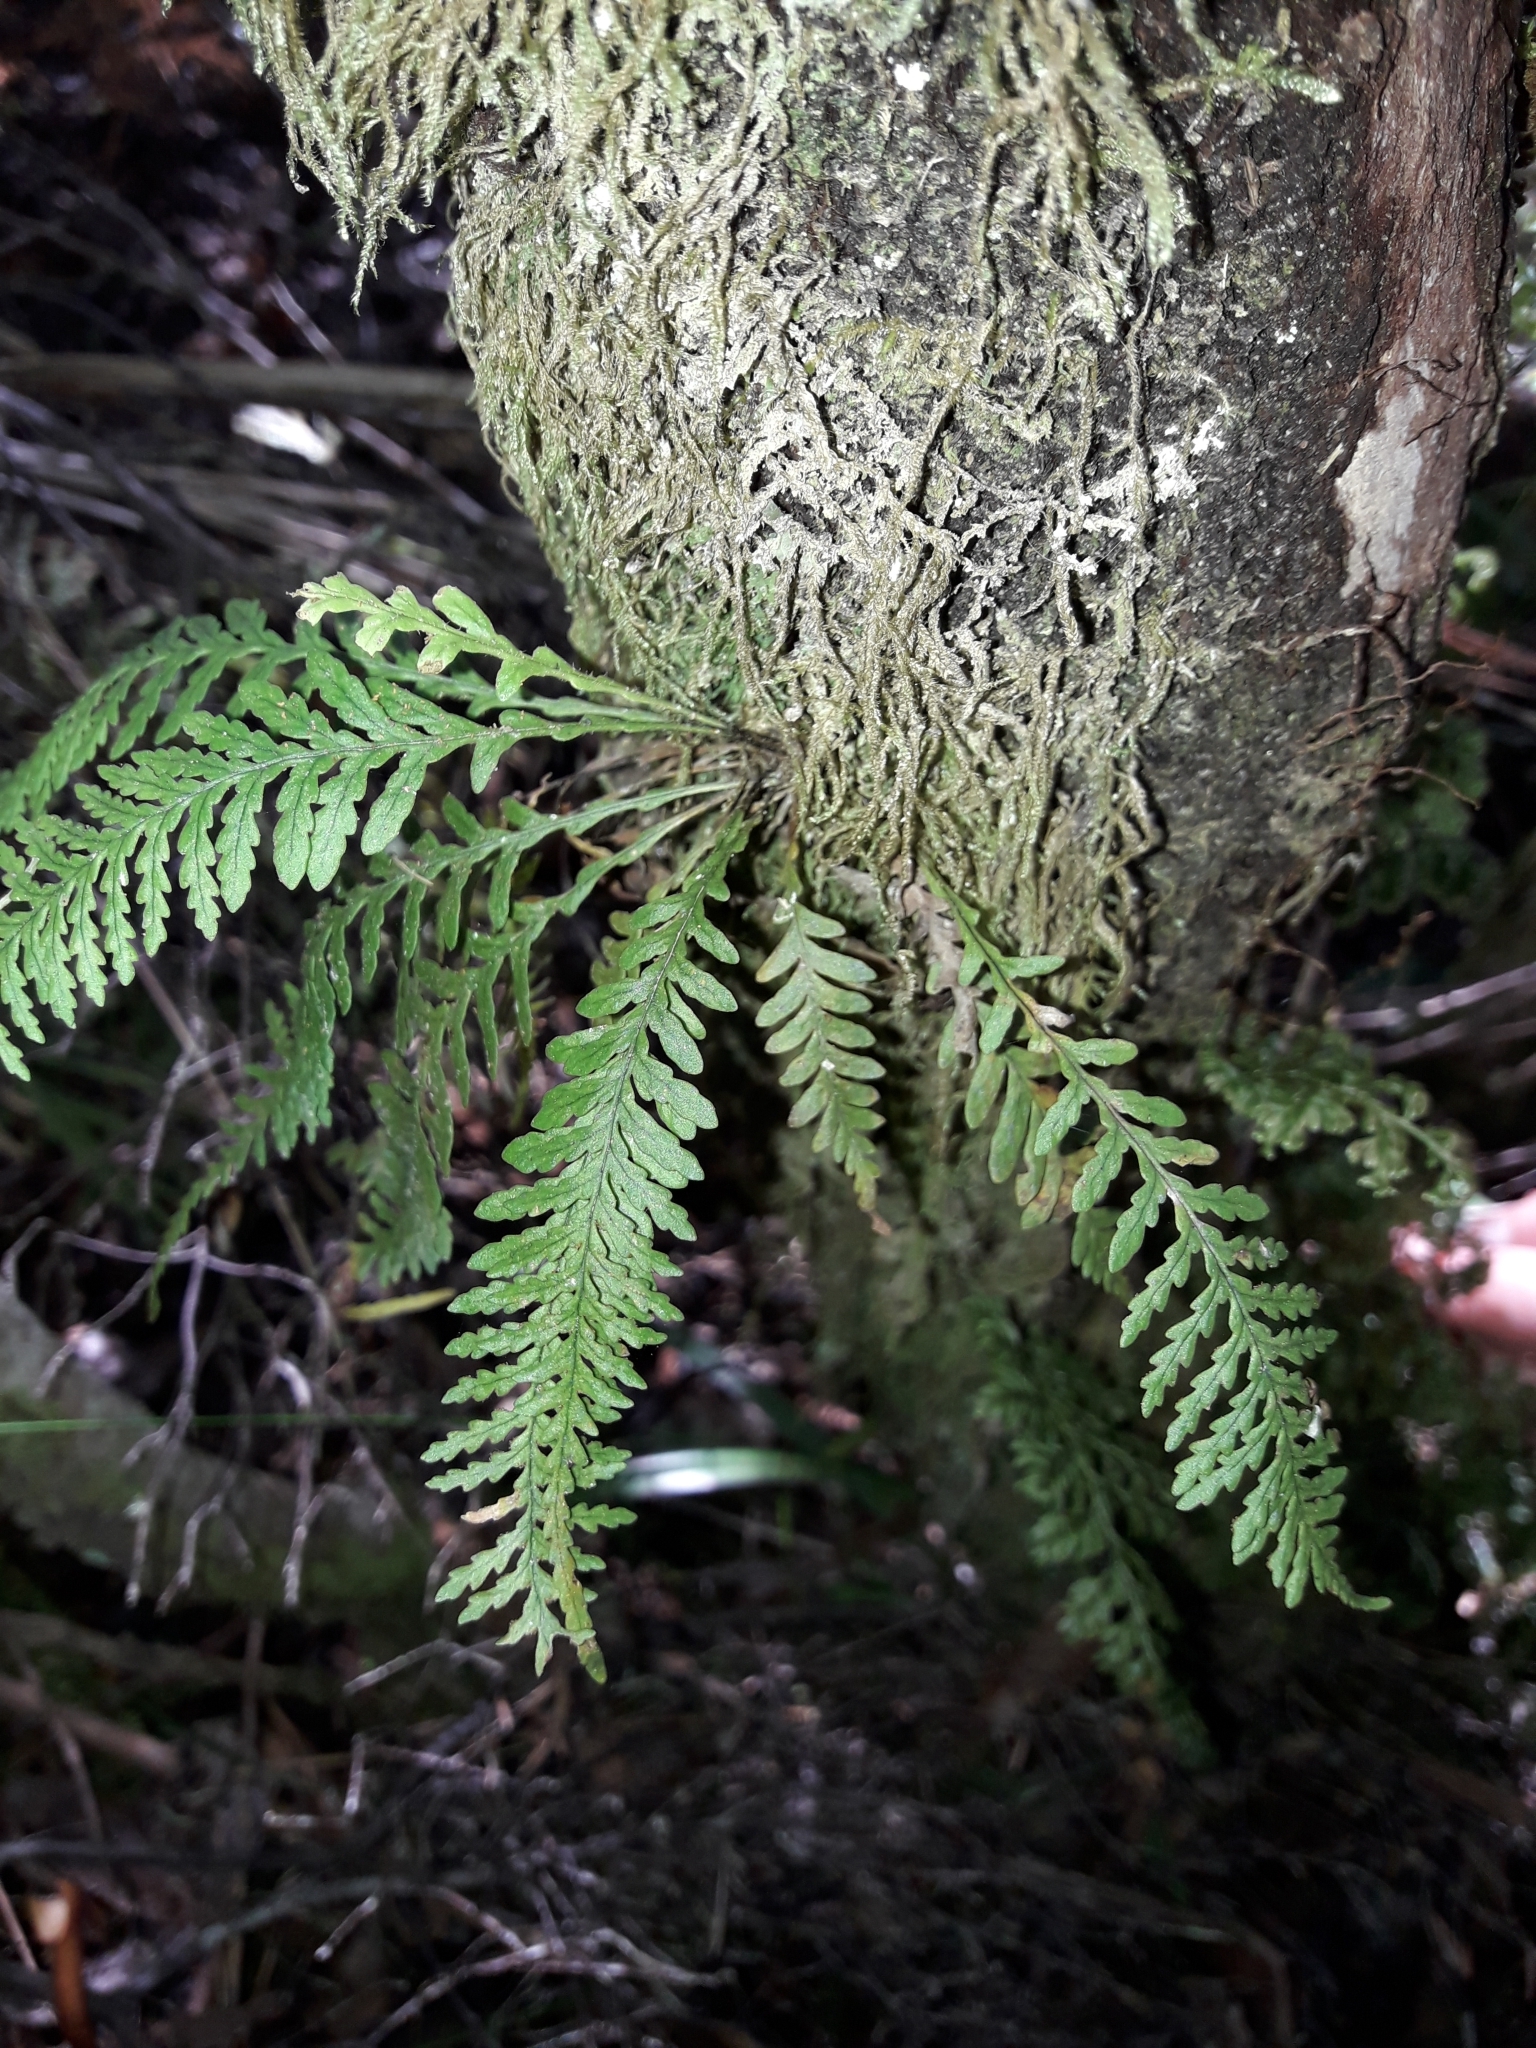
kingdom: Plantae
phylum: Tracheophyta
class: Polypodiopsida
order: Polypodiales
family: Polypodiaceae
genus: Notogrammitis
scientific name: Notogrammitis heterophylla
